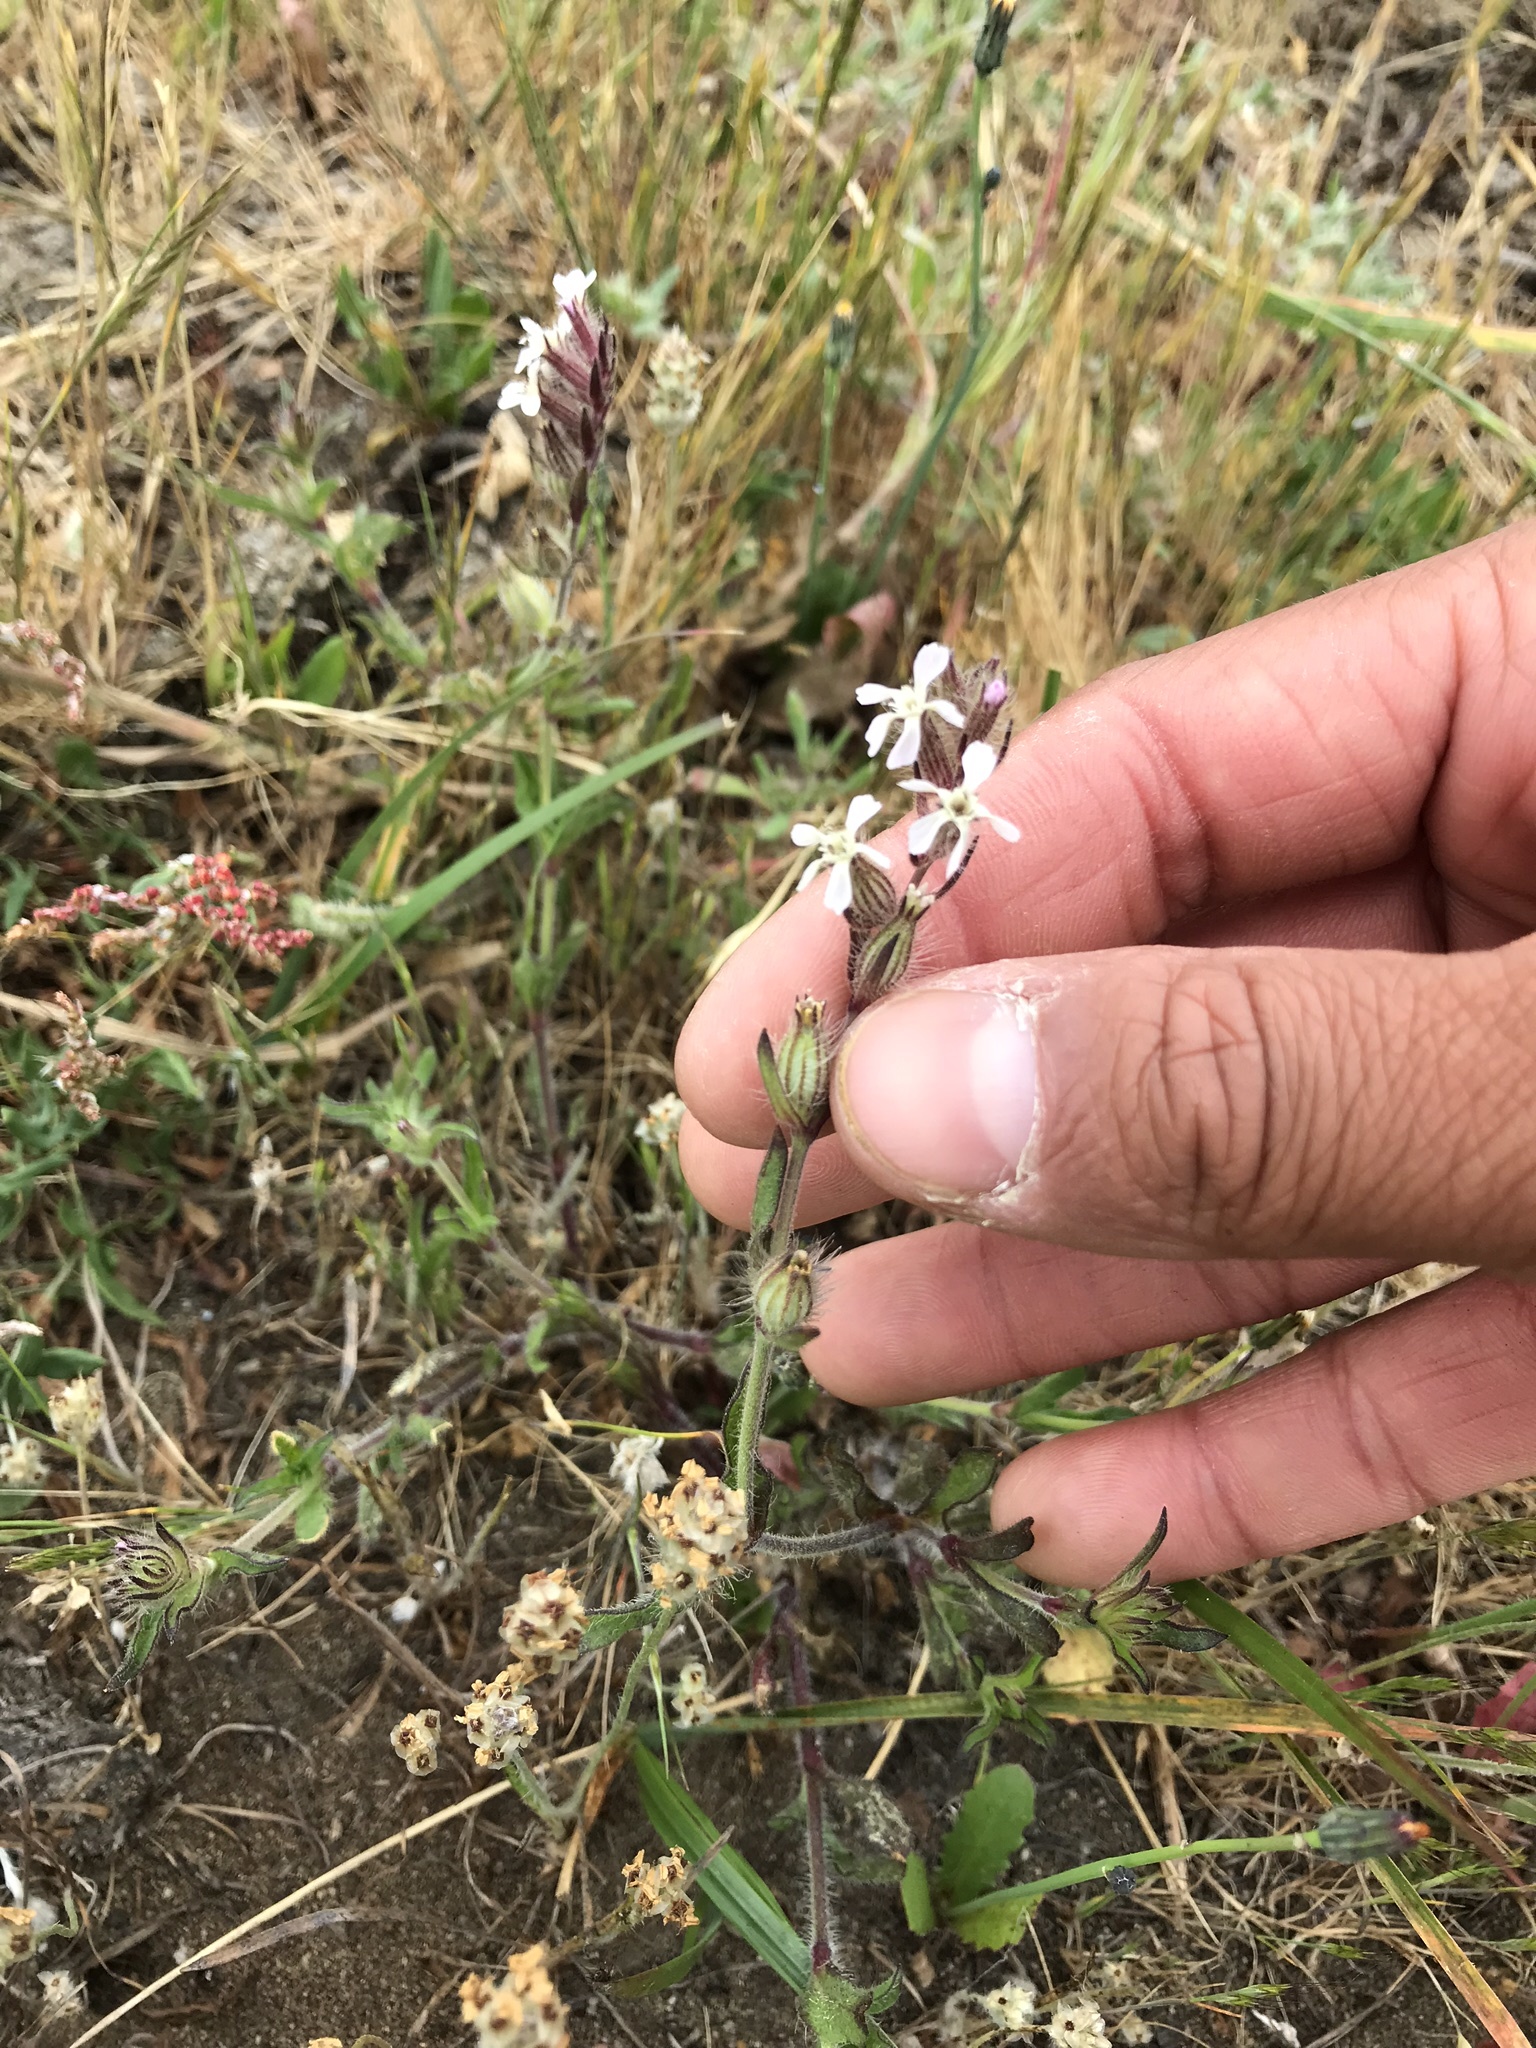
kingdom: Plantae
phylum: Tracheophyta
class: Magnoliopsida
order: Caryophyllales
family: Caryophyllaceae
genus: Silene
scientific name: Silene gallica
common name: Small-flowered catchfly
